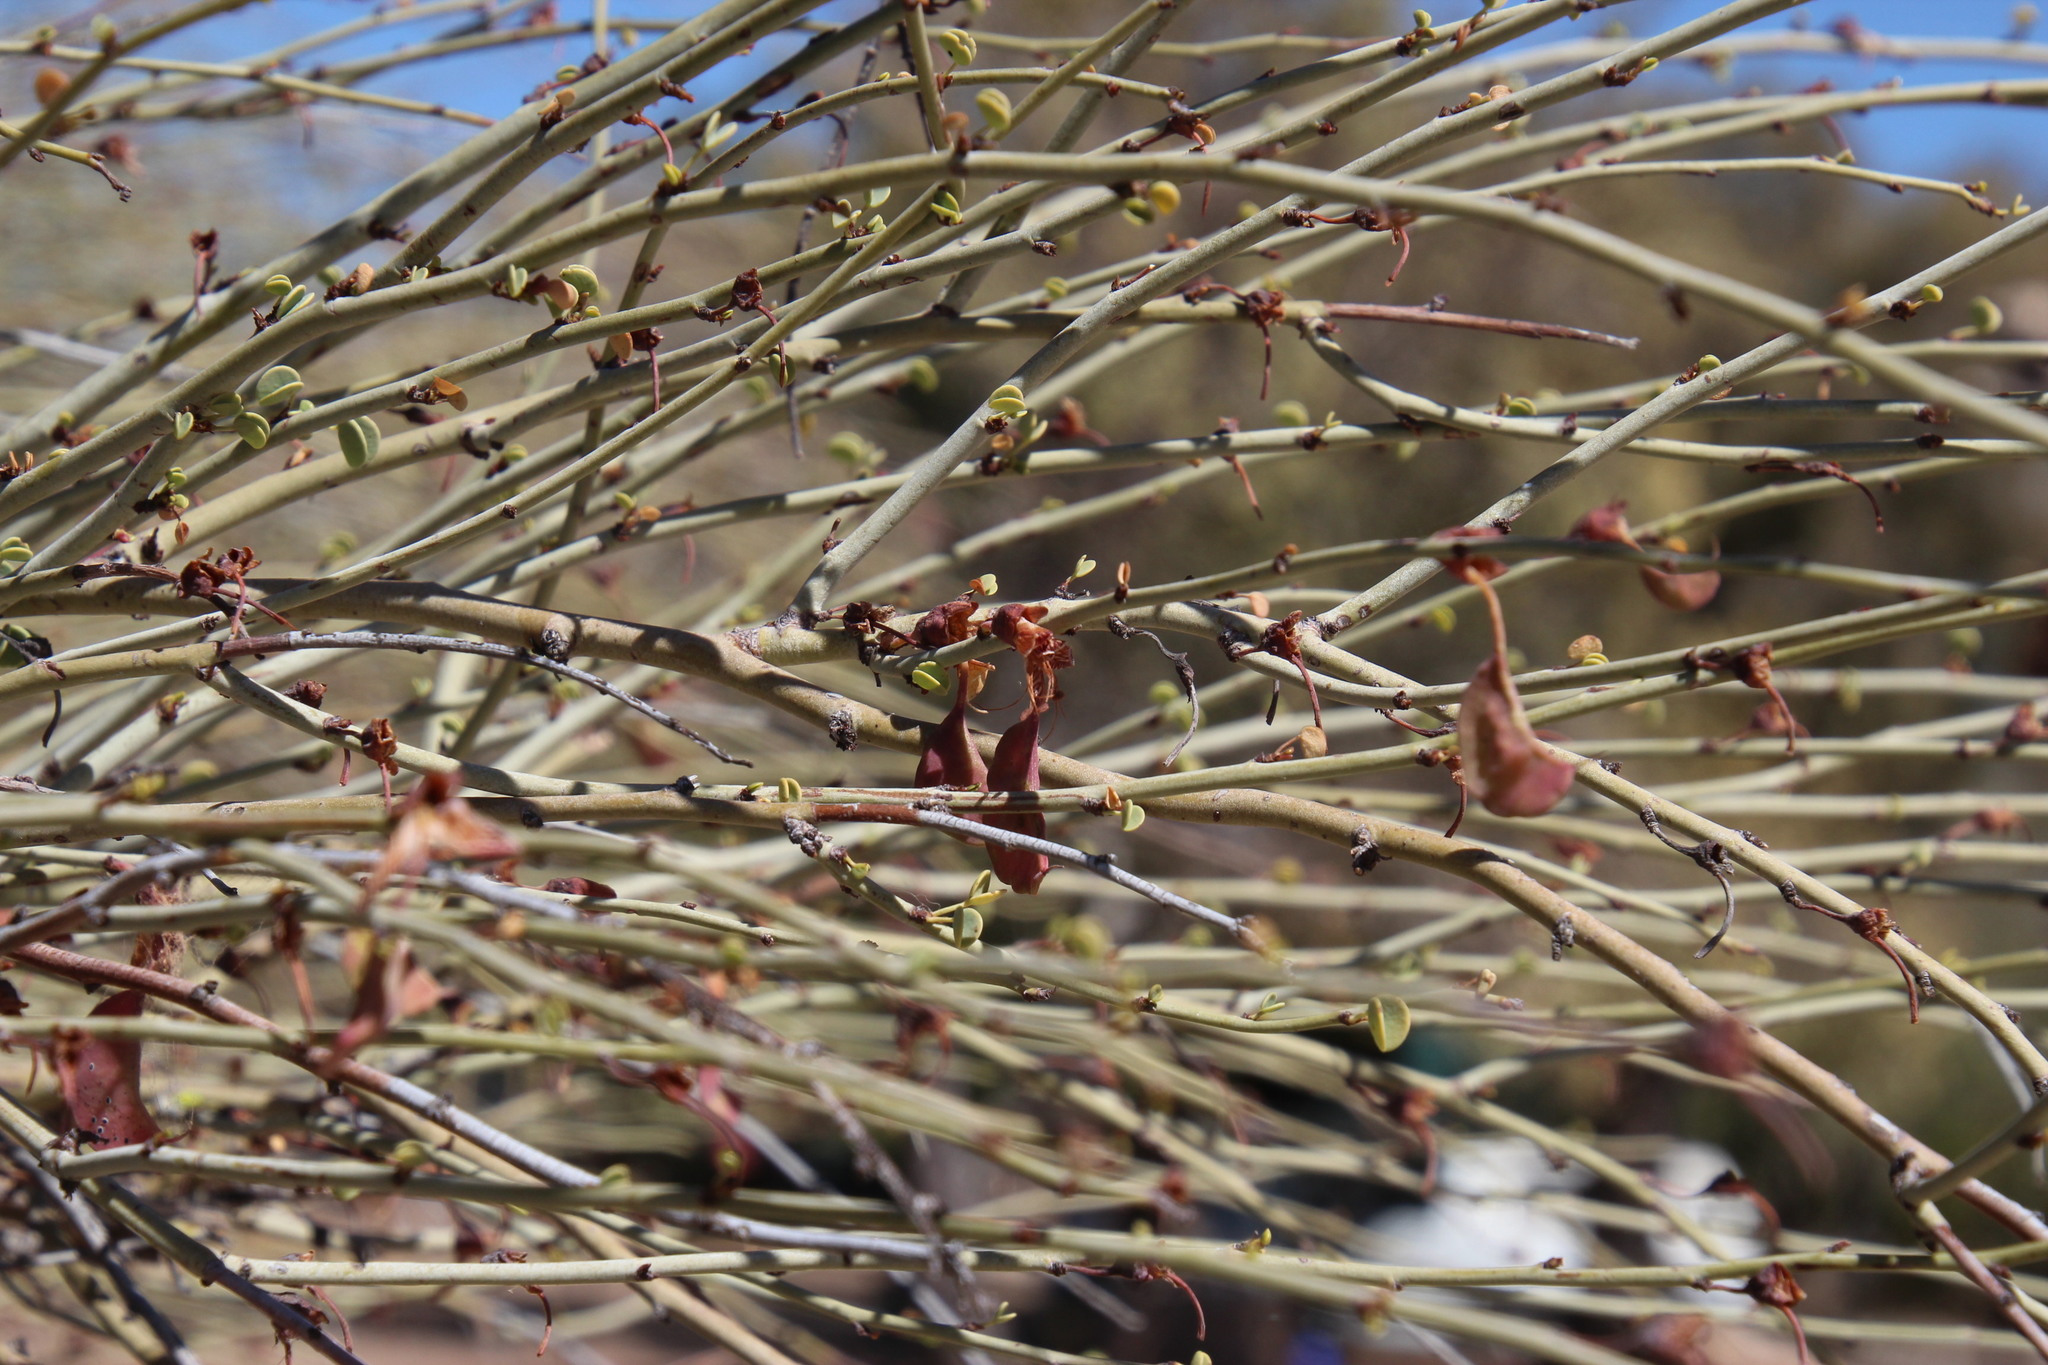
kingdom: Plantae
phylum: Tracheophyta
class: Magnoliopsida
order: Fabales
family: Fabaceae
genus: Adenolobus
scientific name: Adenolobus garipensis
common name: Butterfly-leaf
